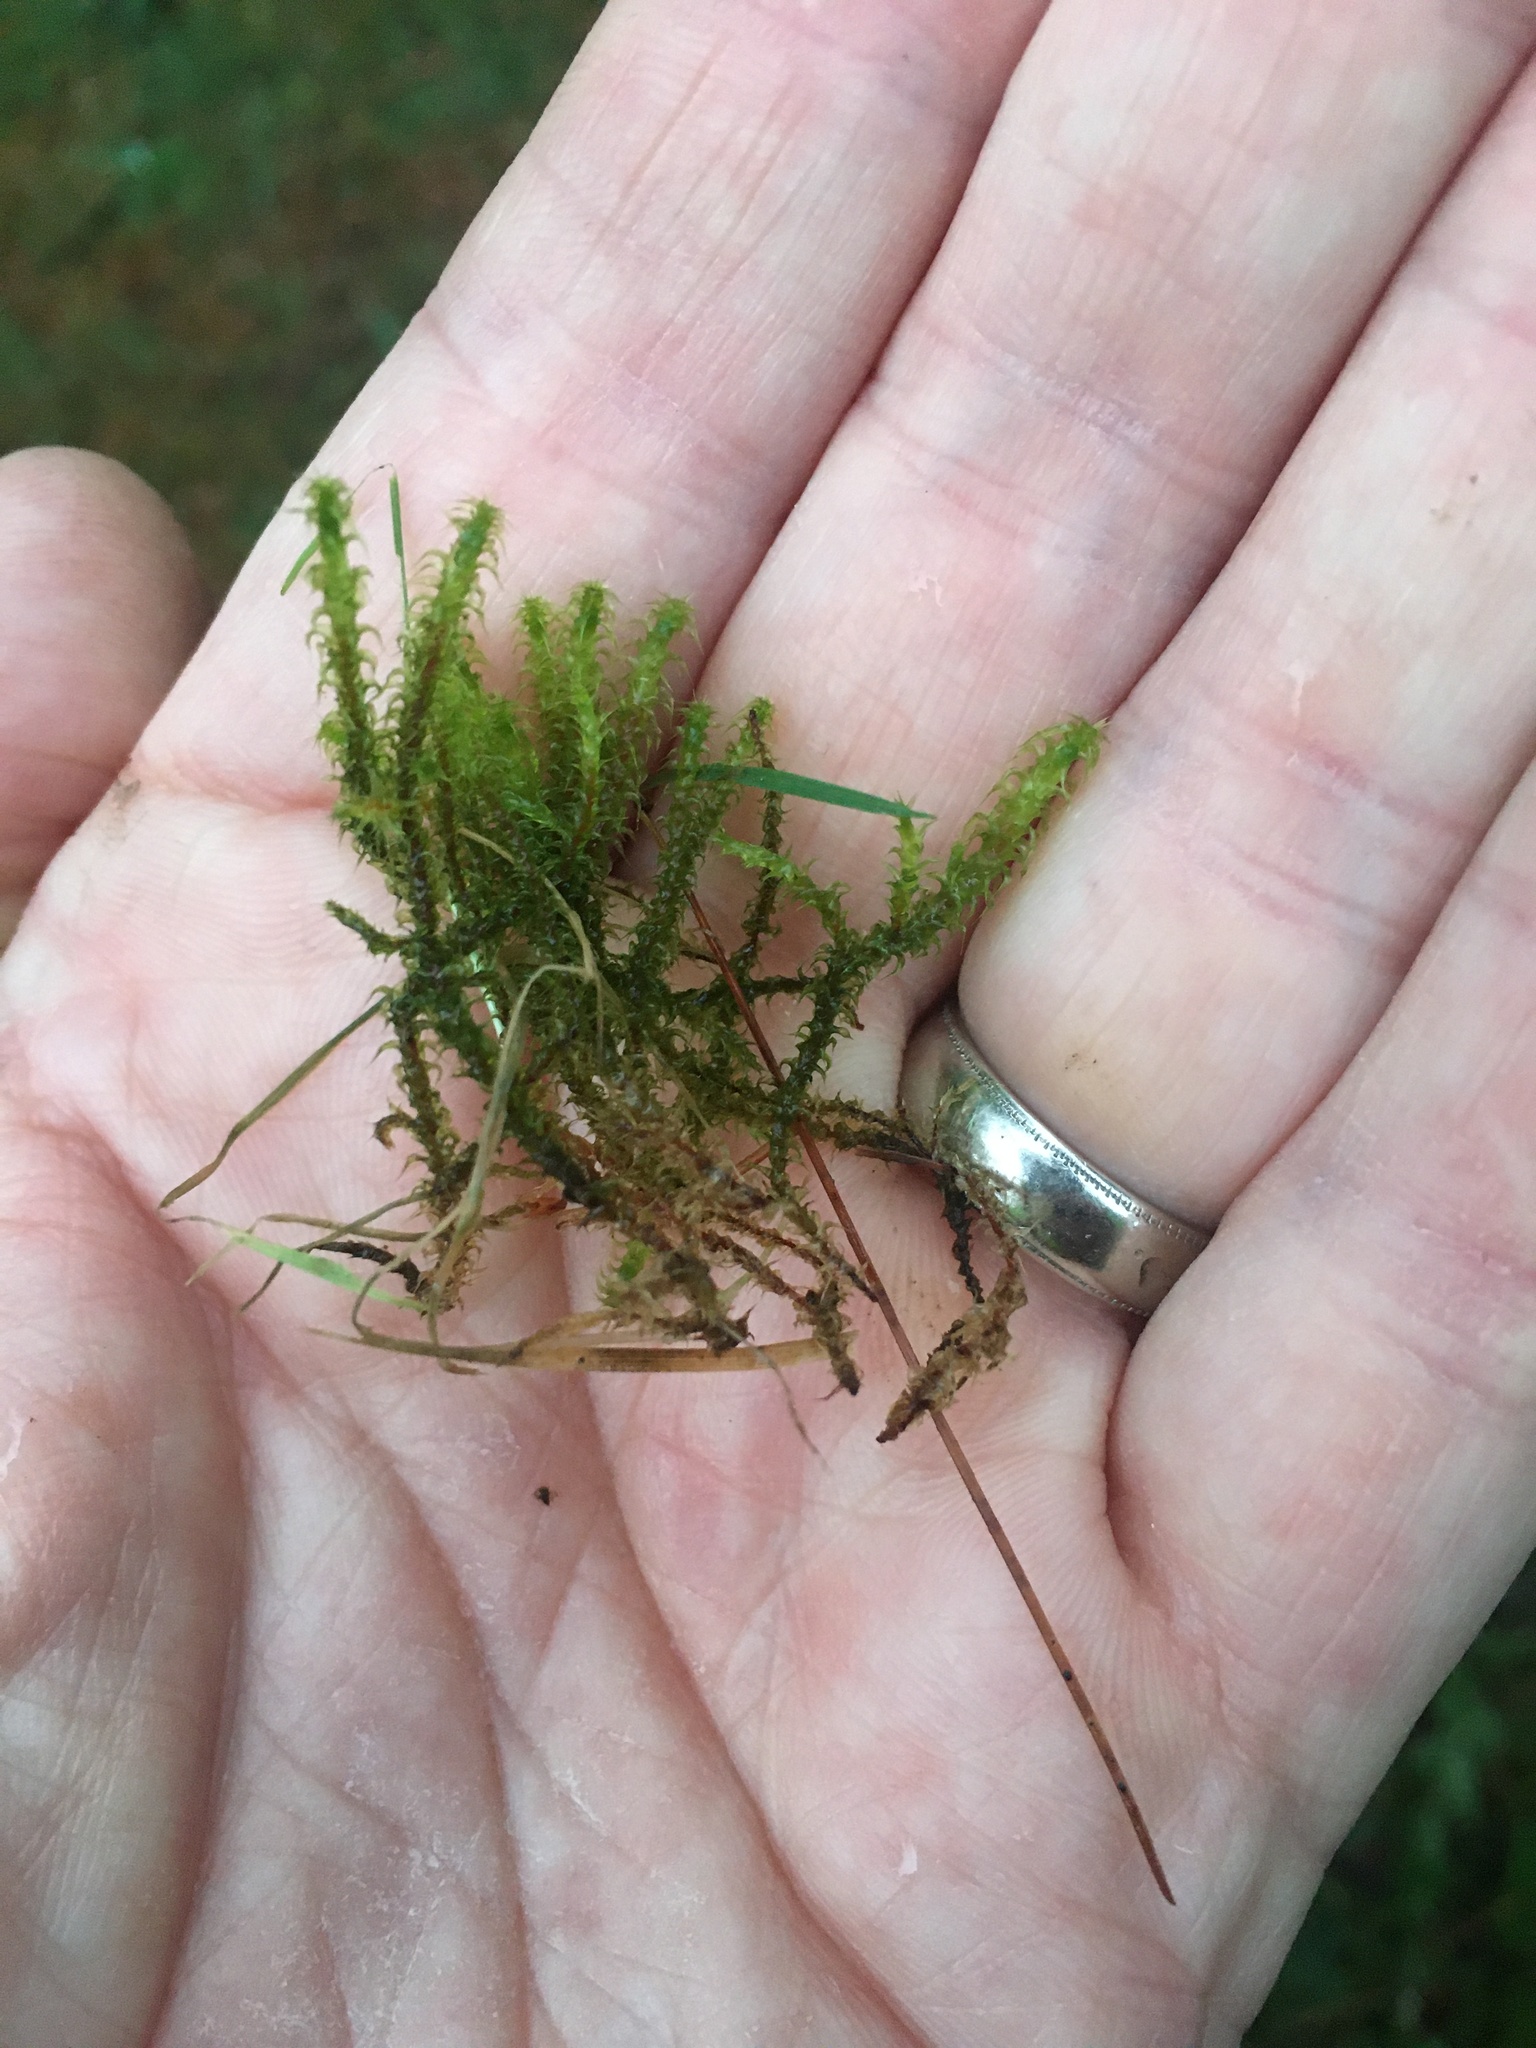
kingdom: Plantae
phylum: Bryophyta
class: Bryopsida
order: Hypnales
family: Hylocomiaceae
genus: Rhytidiadelphus
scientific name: Rhytidiadelphus squarrosus
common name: Springy turf-moss
